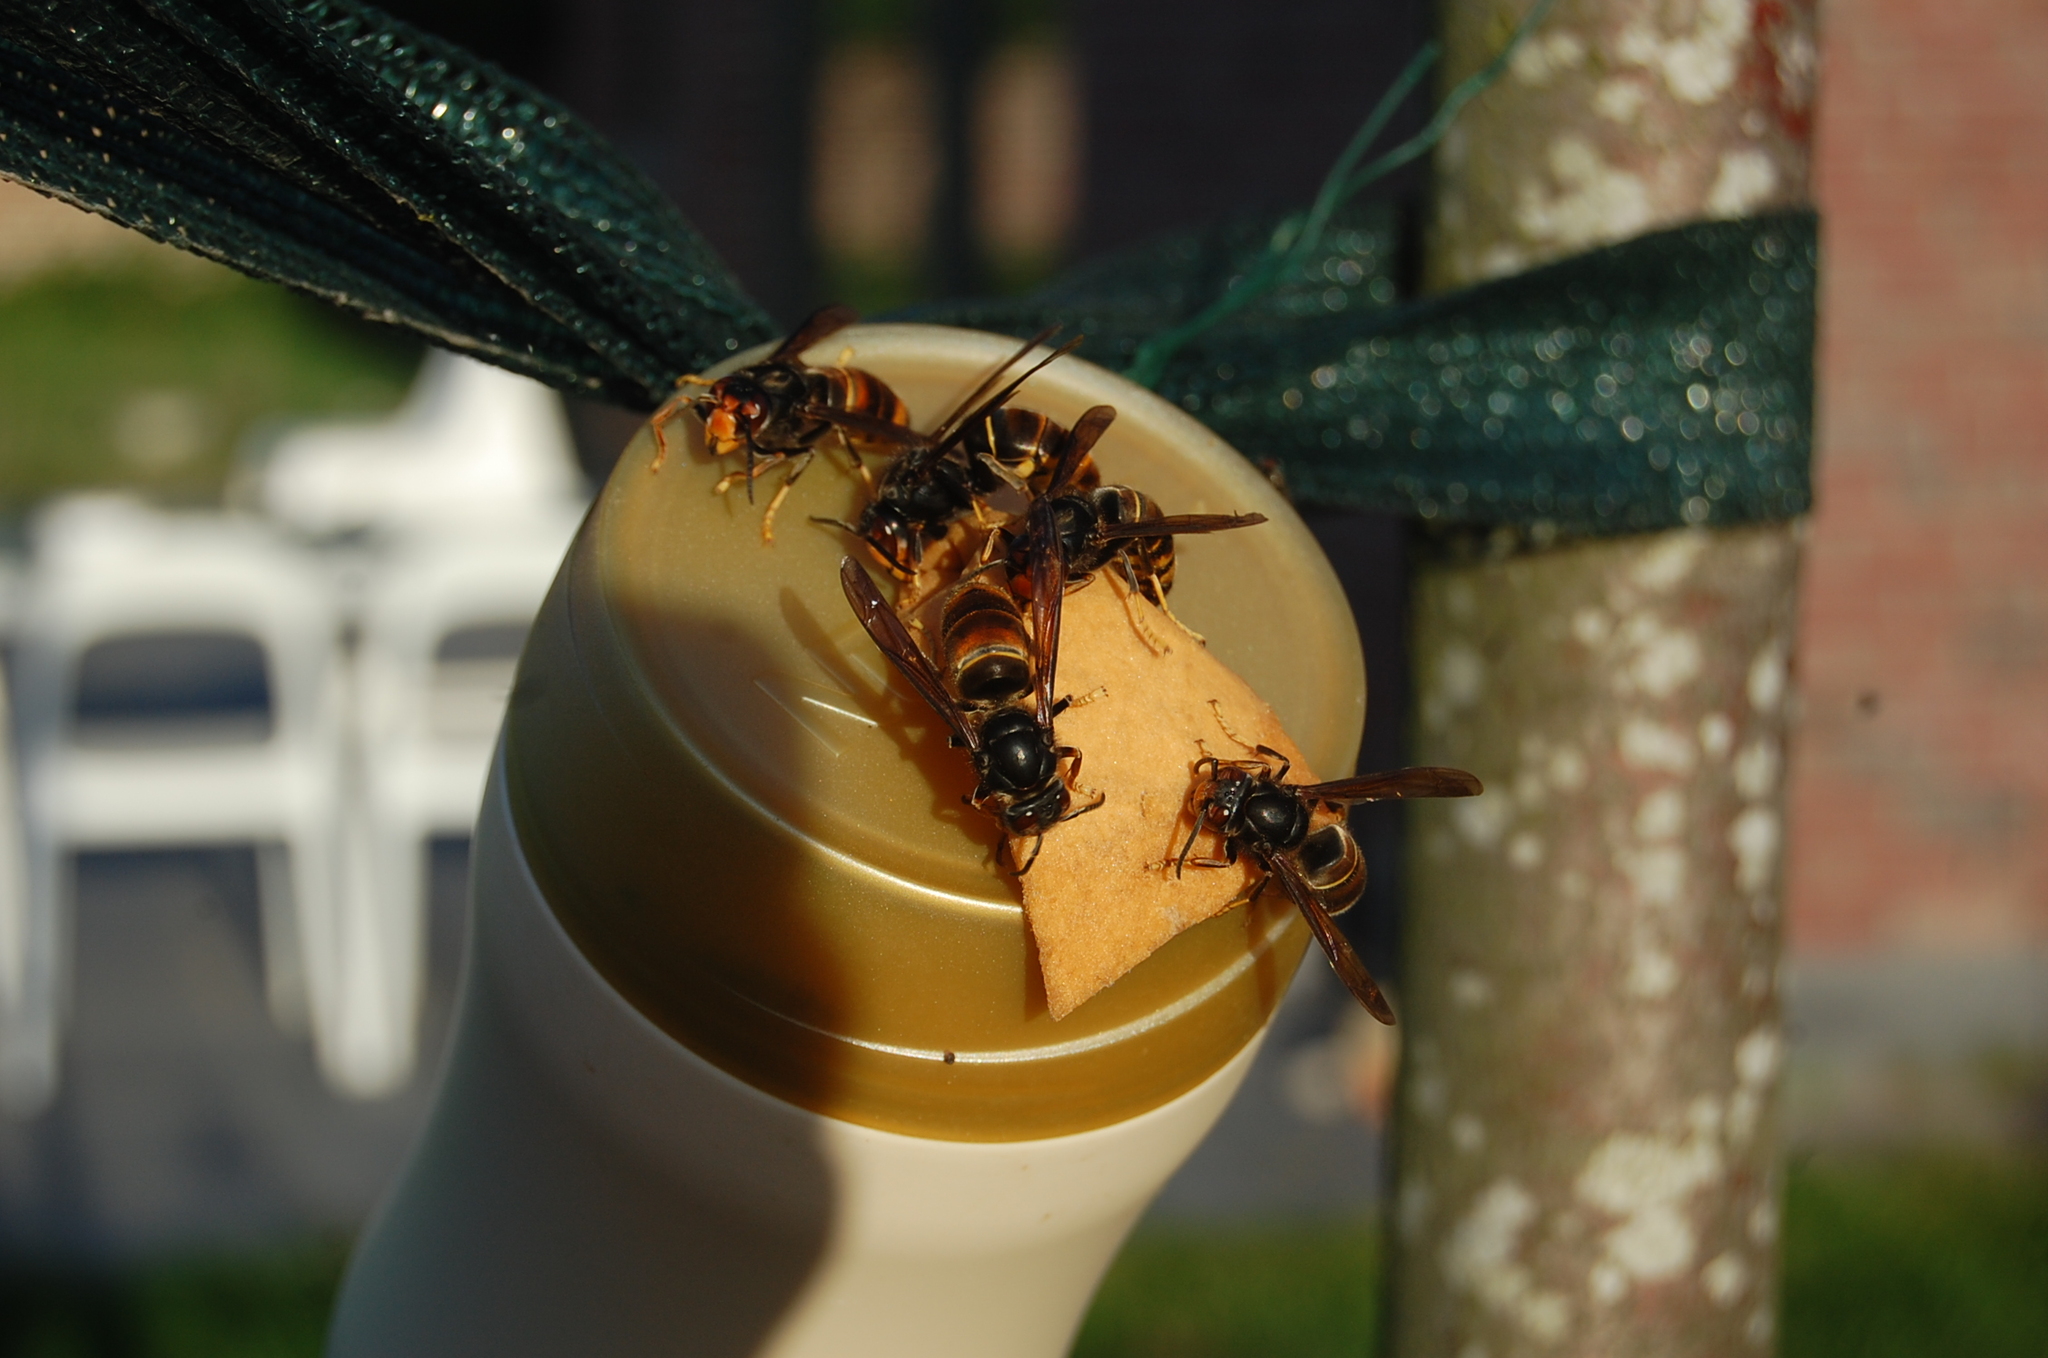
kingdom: Animalia
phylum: Arthropoda
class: Insecta
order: Hymenoptera
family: Vespidae
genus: Vespa
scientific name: Vespa velutina
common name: Asian hornet
